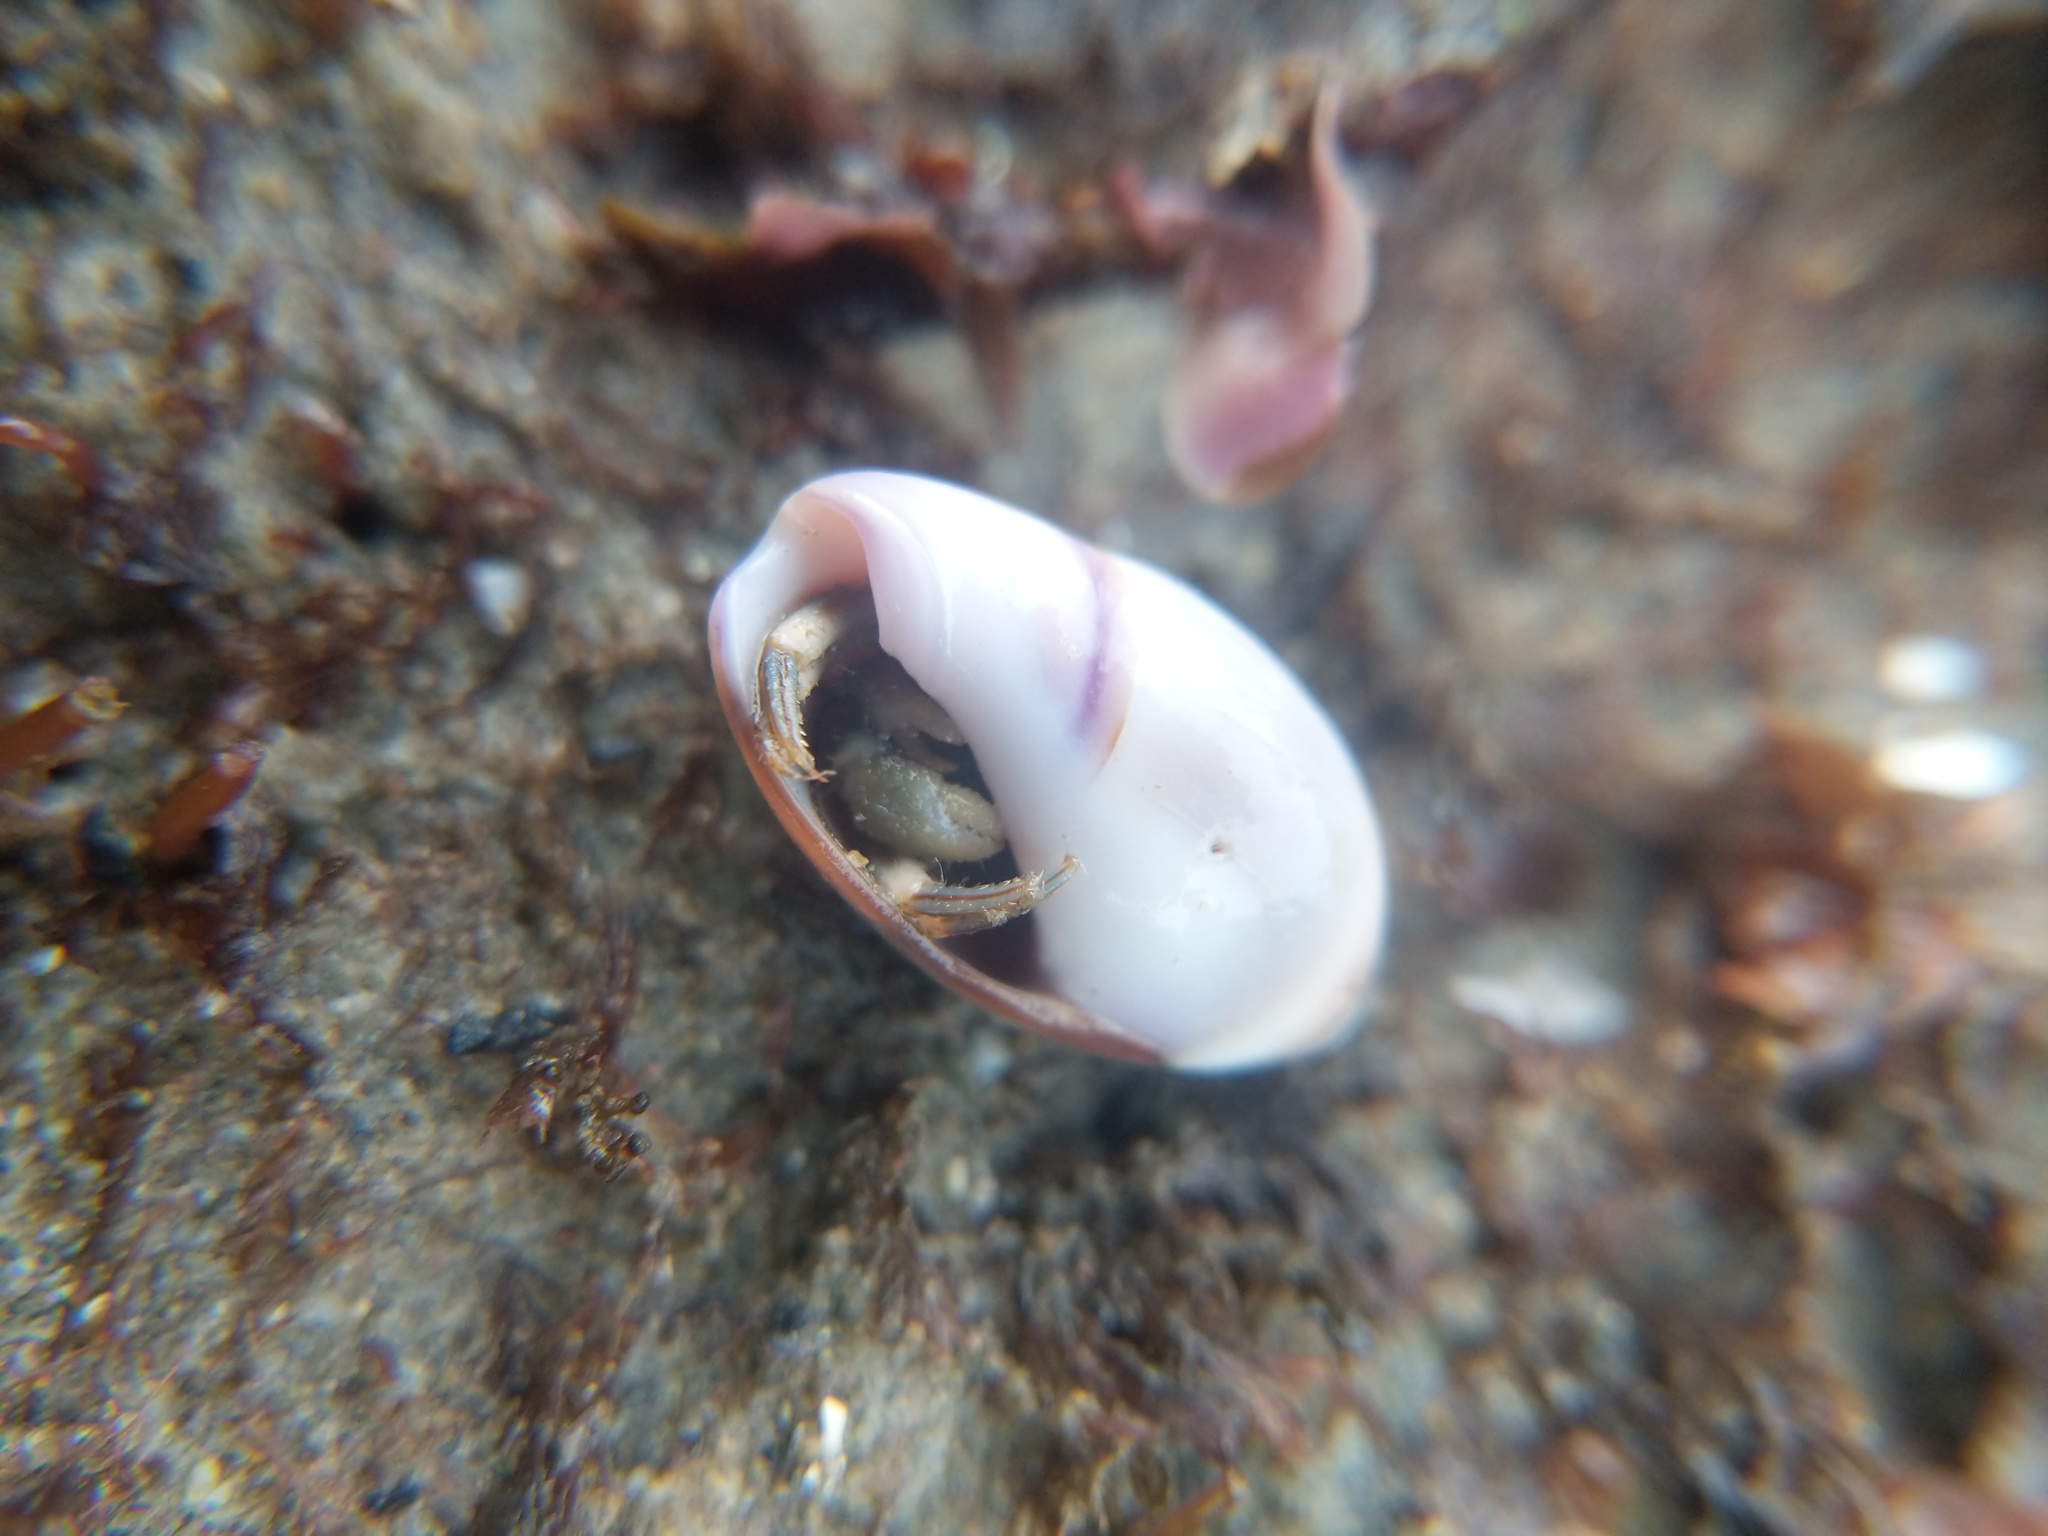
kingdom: Animalia
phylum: Mollusca
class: Gastropoda
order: Neogastropoda
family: Olividae
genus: Callianax
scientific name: Callianax biplicata
